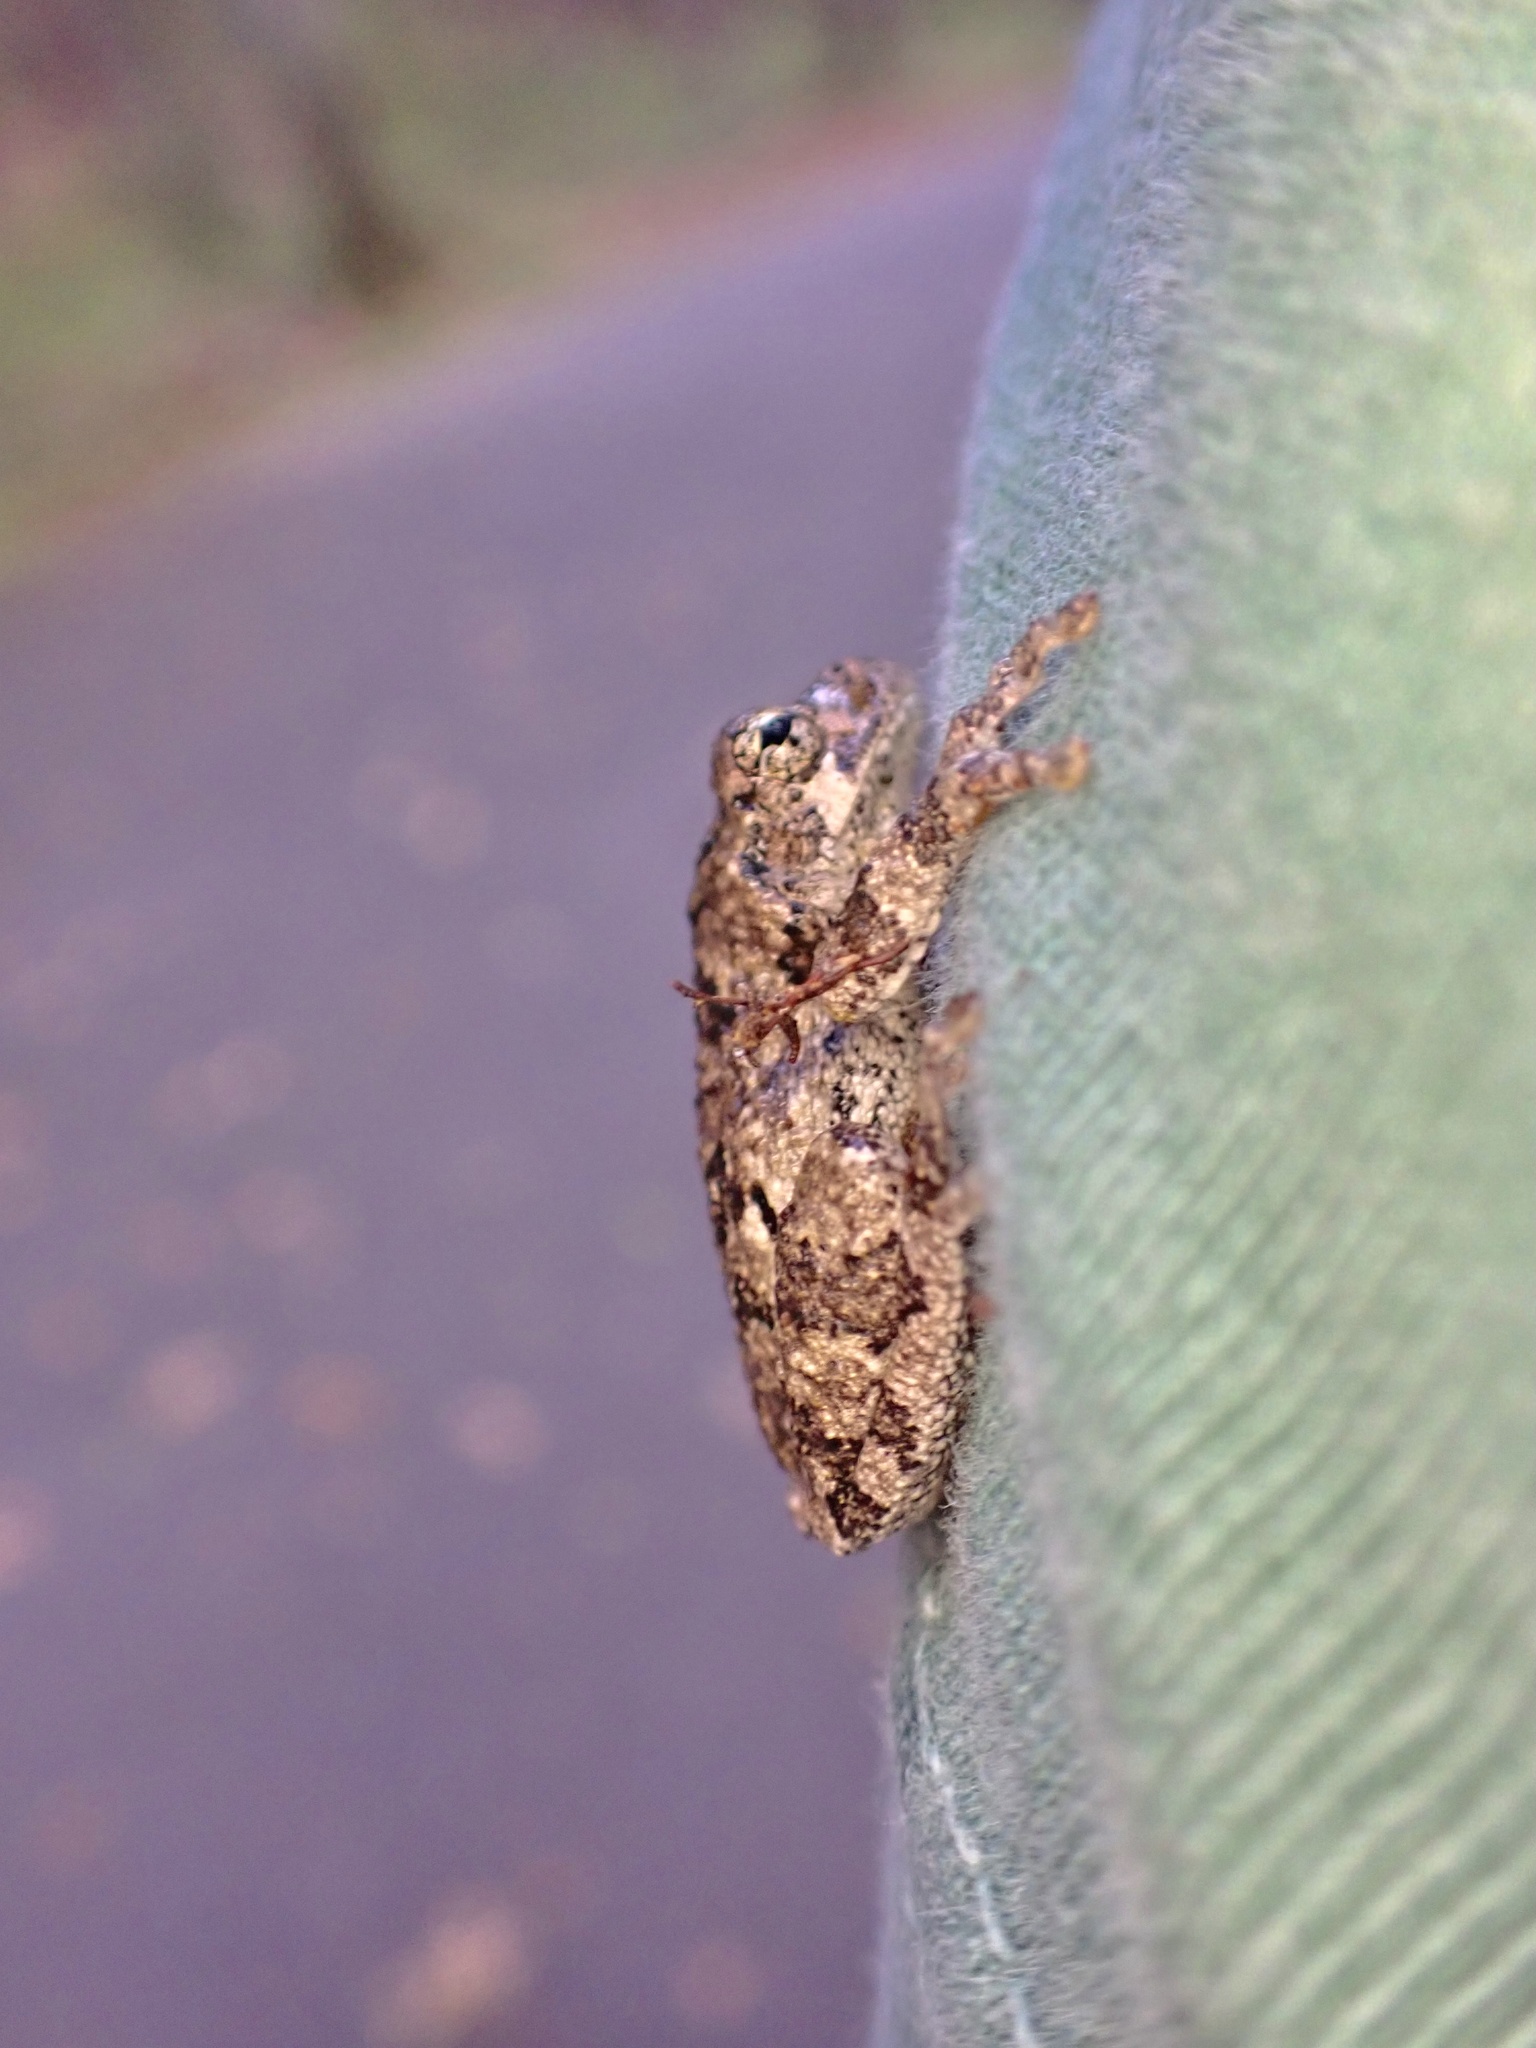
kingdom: Animalia
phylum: Chordata
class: Amphibia
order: Anura
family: Hylidae
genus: Dryophytes
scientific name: Dryophytes versicolor
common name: Gray treefrog
